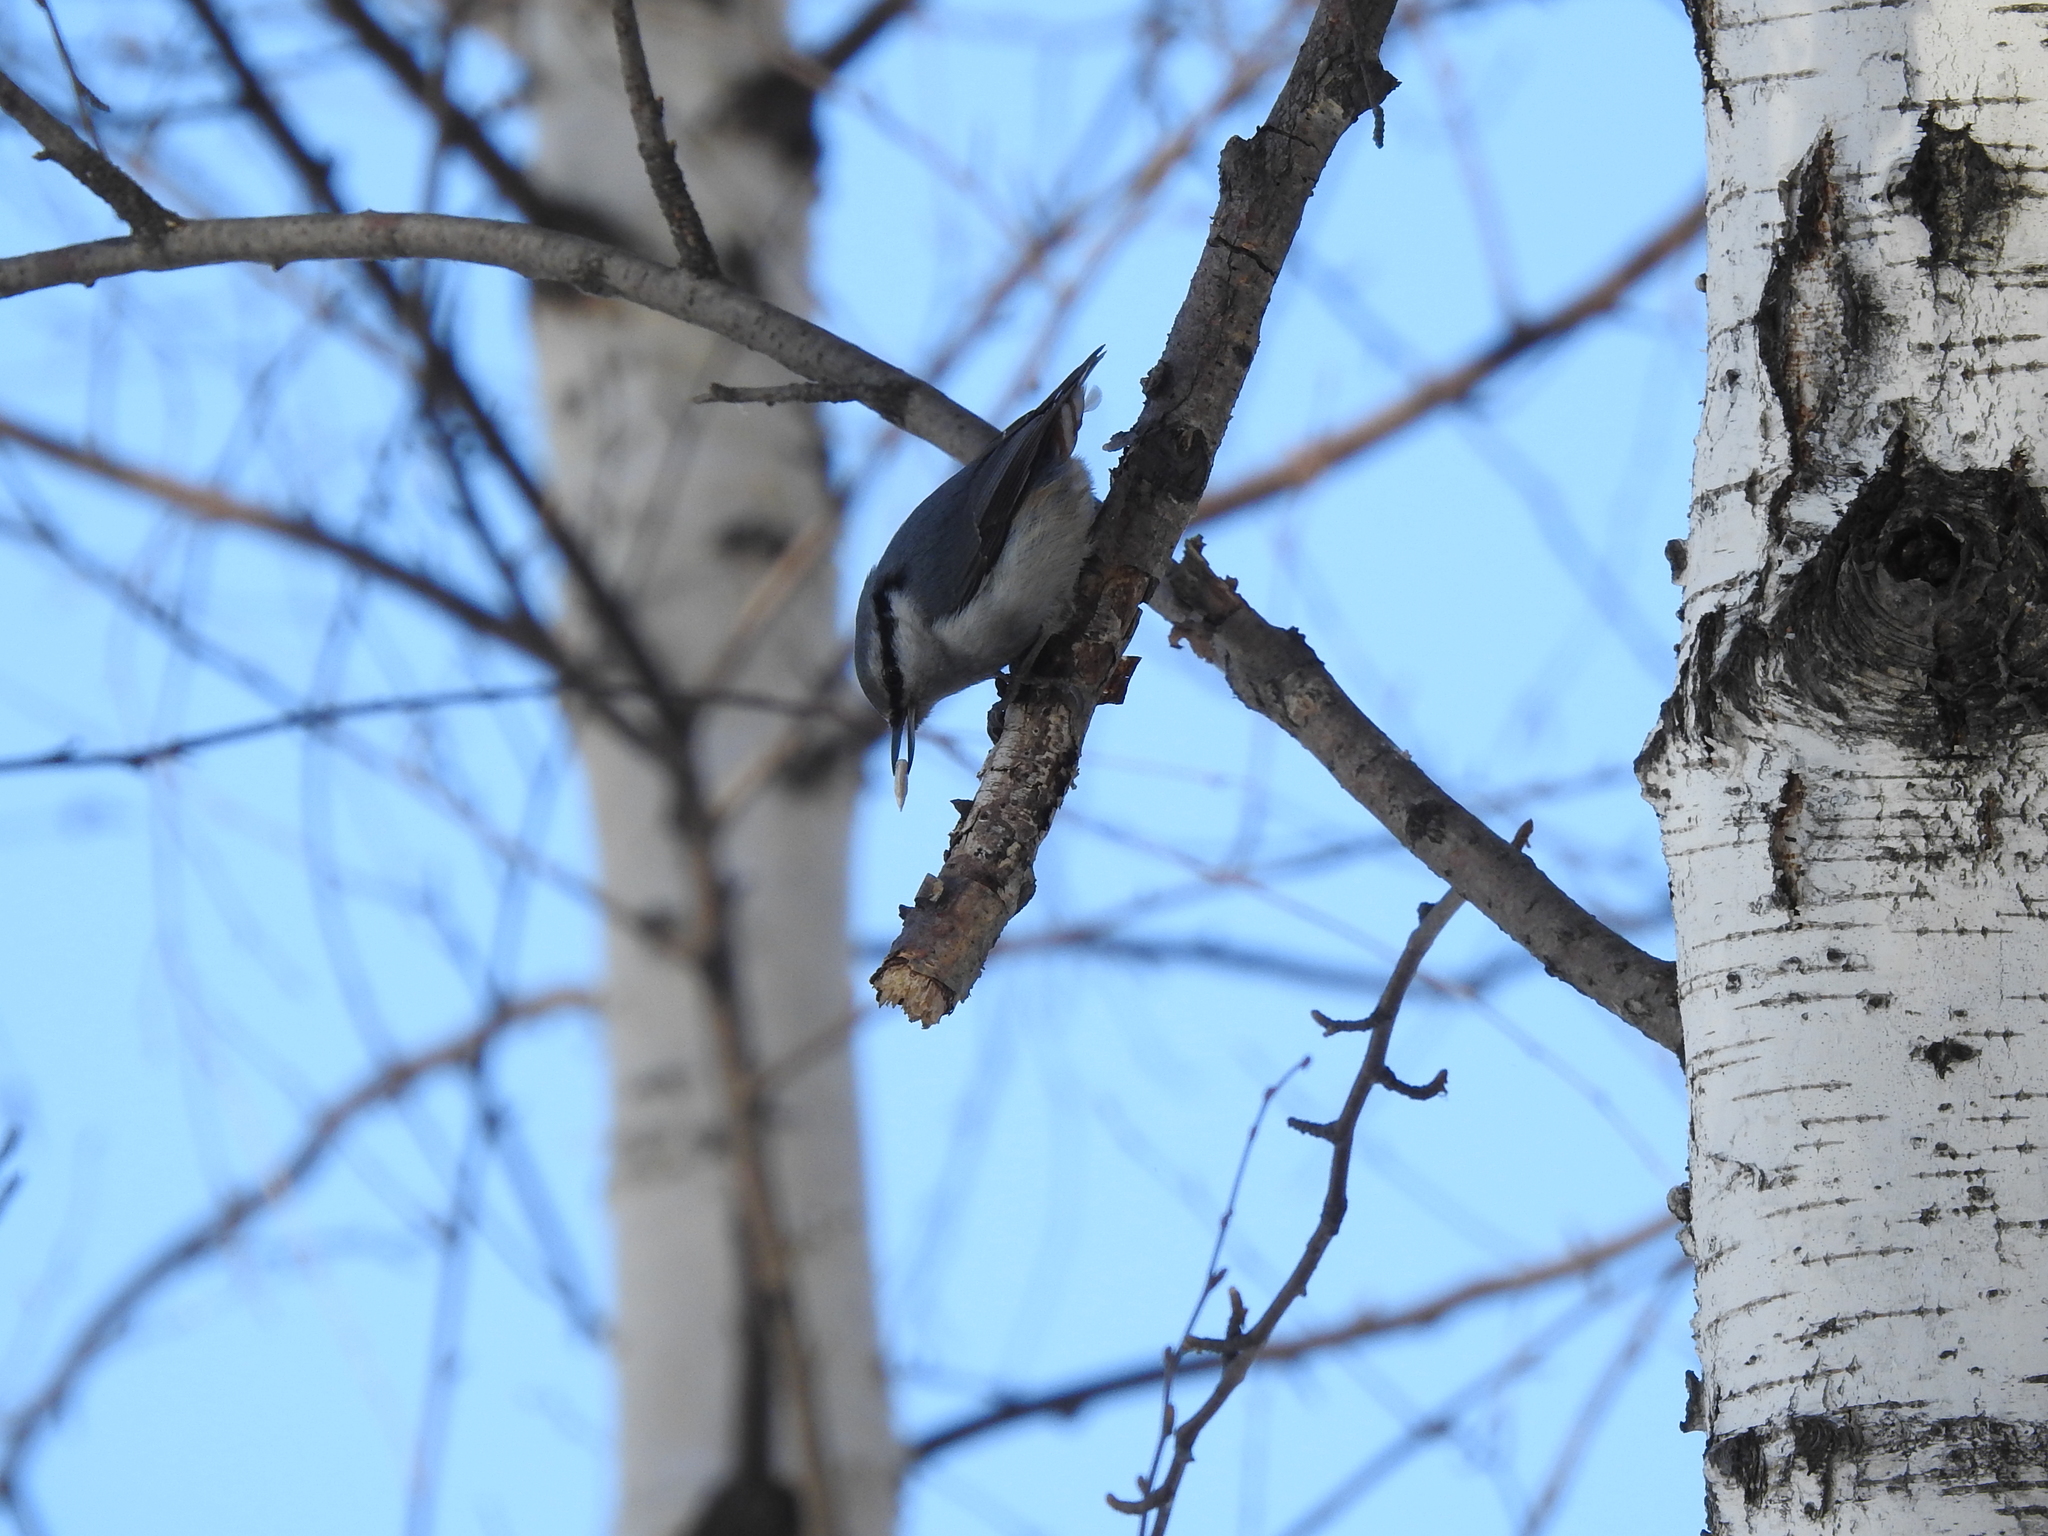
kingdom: Animalia
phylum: Chordata
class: Aves
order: Passeriformes
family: Sittidae
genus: Sitta
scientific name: Sitta europaea
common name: Eurasian nuthatch
